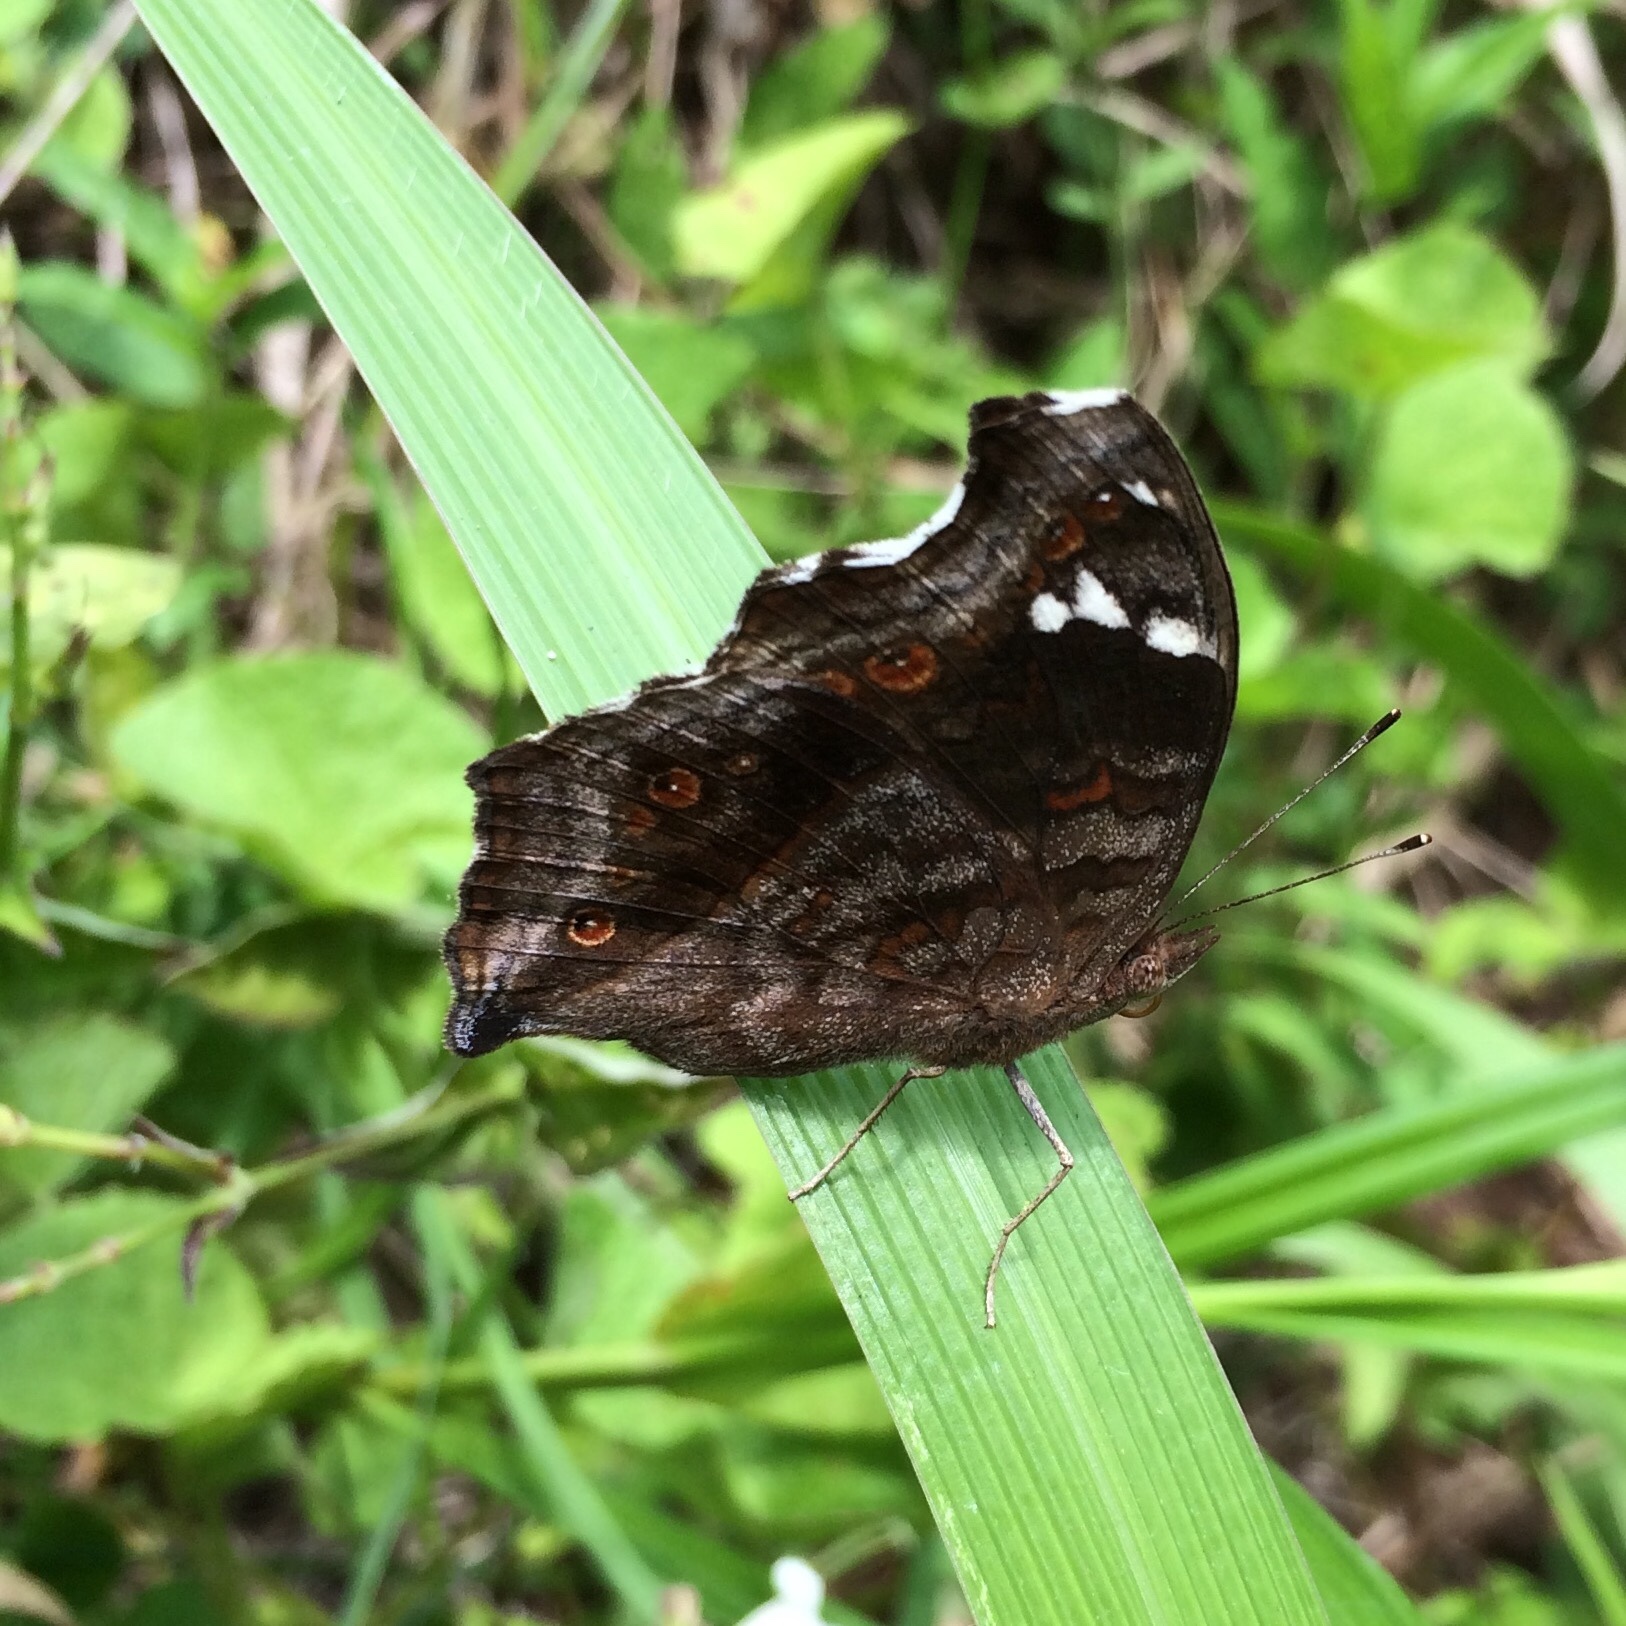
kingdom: Animalia
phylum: Arthropoda
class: Insecta
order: Lepidoptera
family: Nymphalidae
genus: Junonia
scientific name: Junonia natalica
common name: Brown pansy
